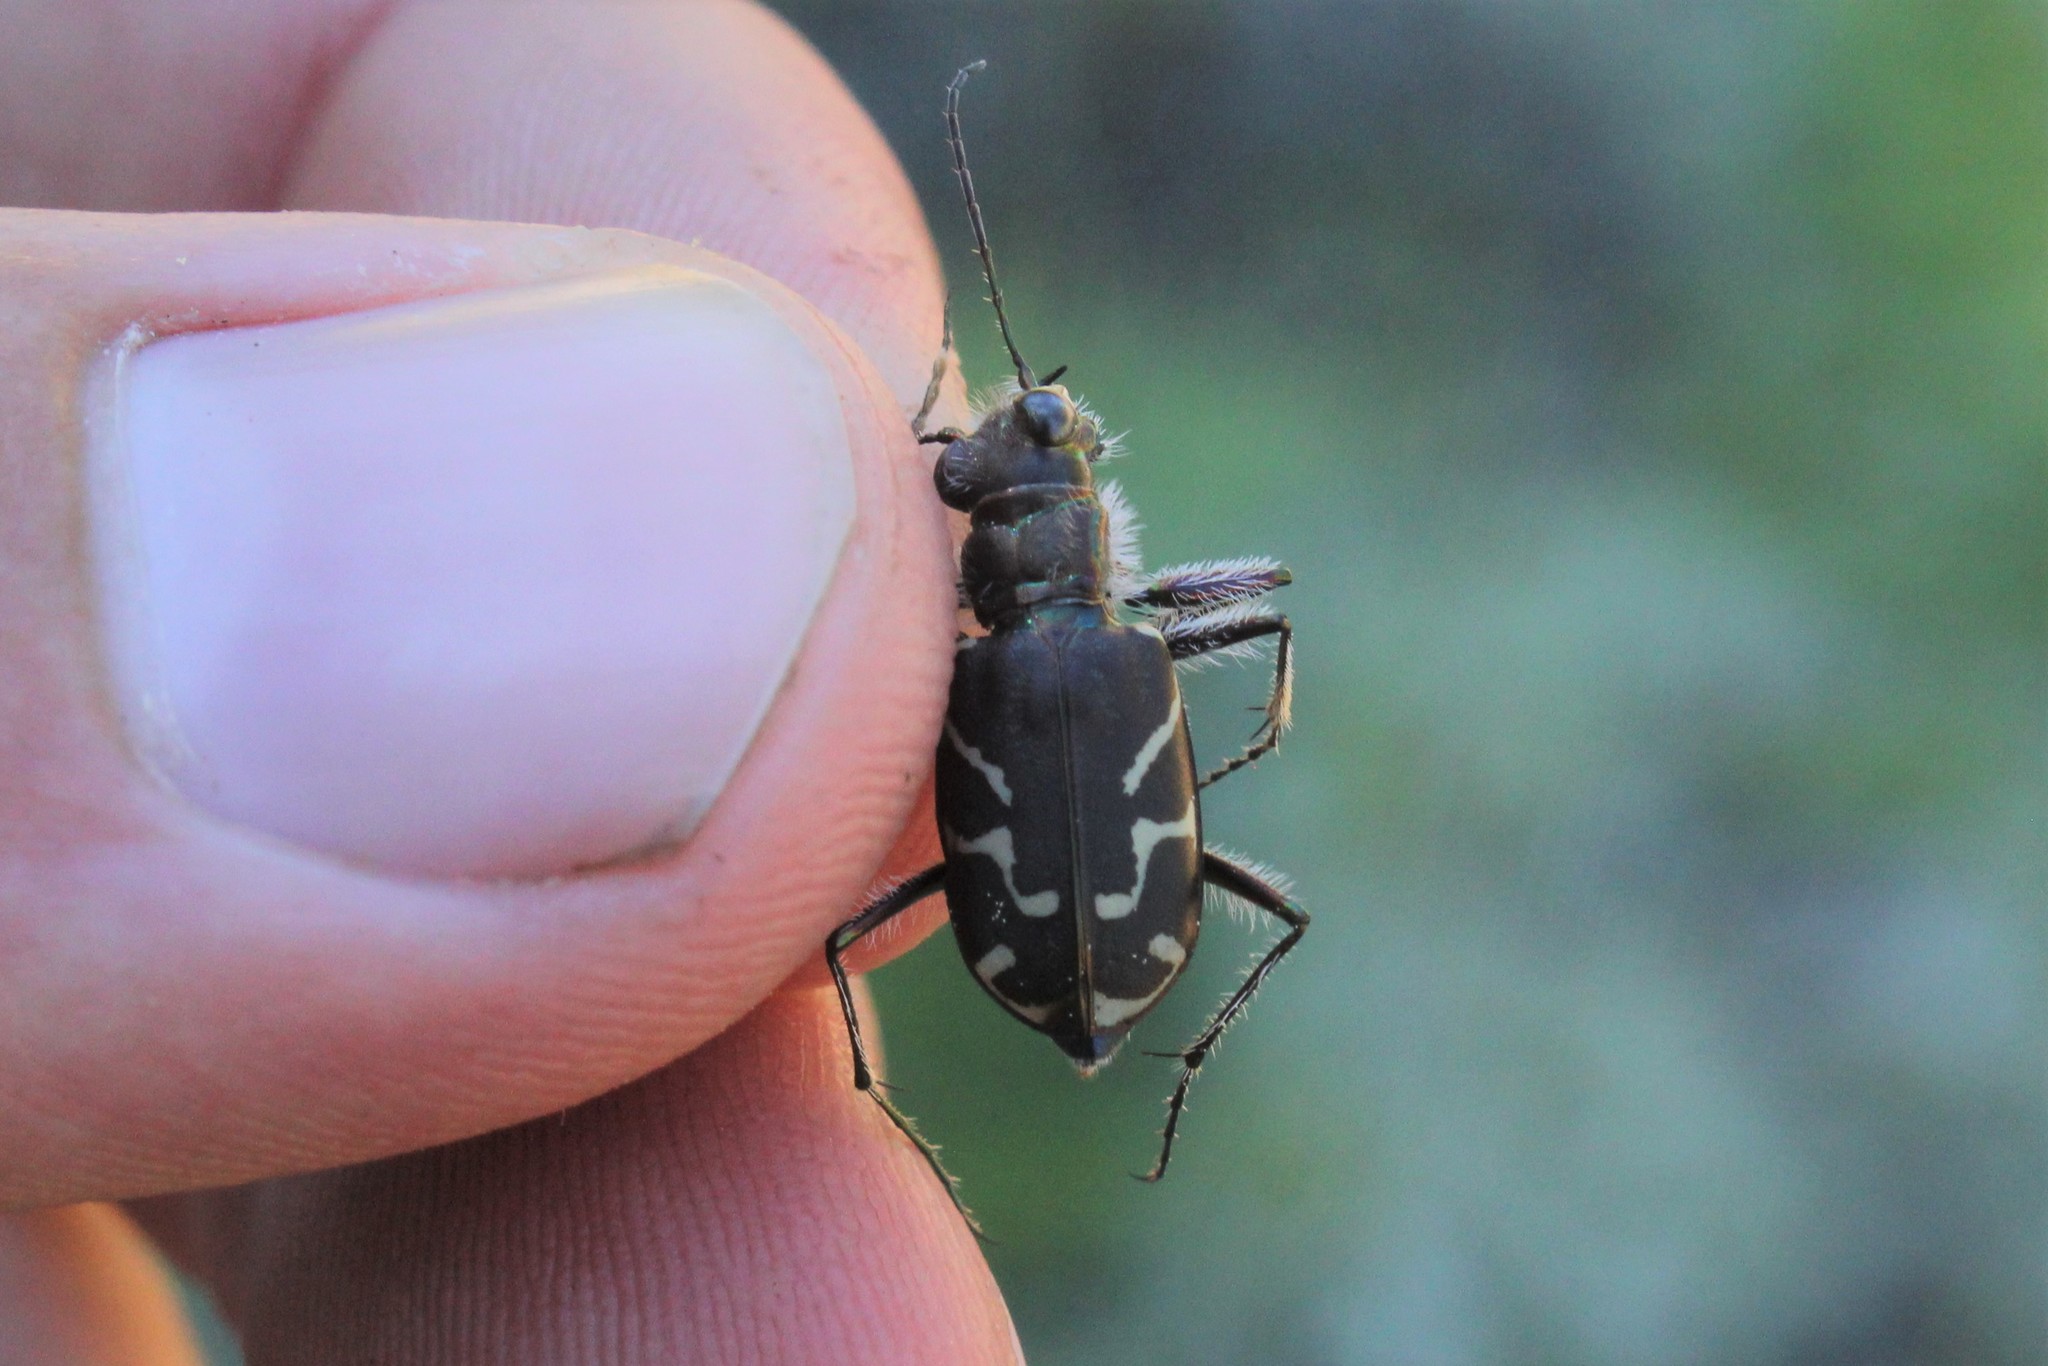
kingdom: Animalia
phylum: Arthropoda
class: Insecta
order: Coleoptera
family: Carabidae
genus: Cicindela
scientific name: Cicindela tranquebarica
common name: Oblique-lined tiger beetle
